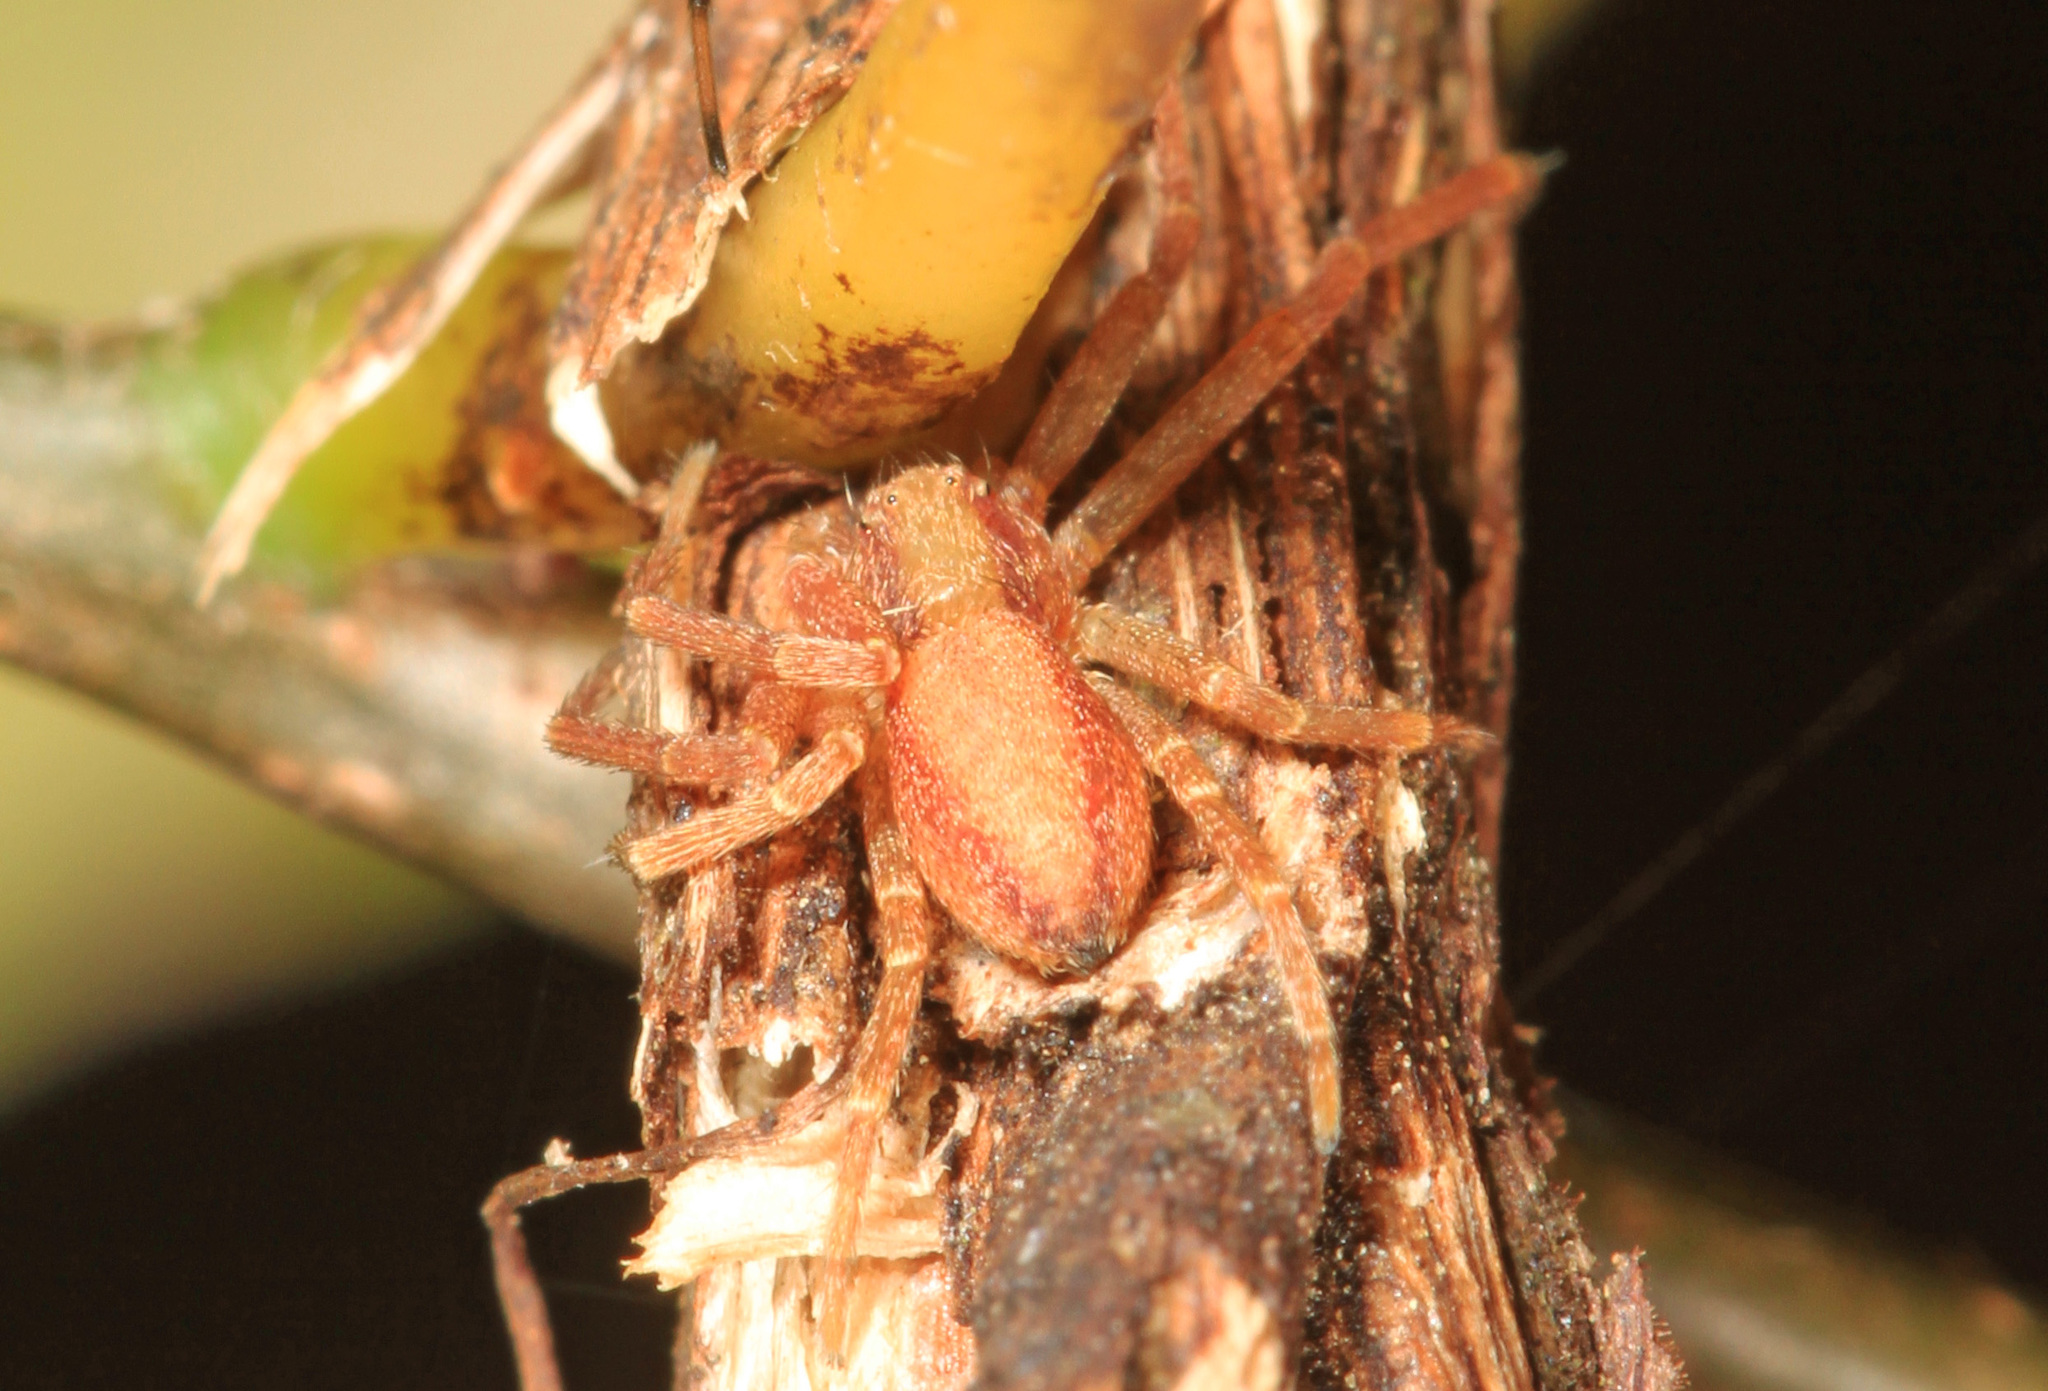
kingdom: Animalia
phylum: Arthropoda
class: Arachnida
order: Araneae
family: Philodromidae
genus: Philodromus
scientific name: Philodromus
